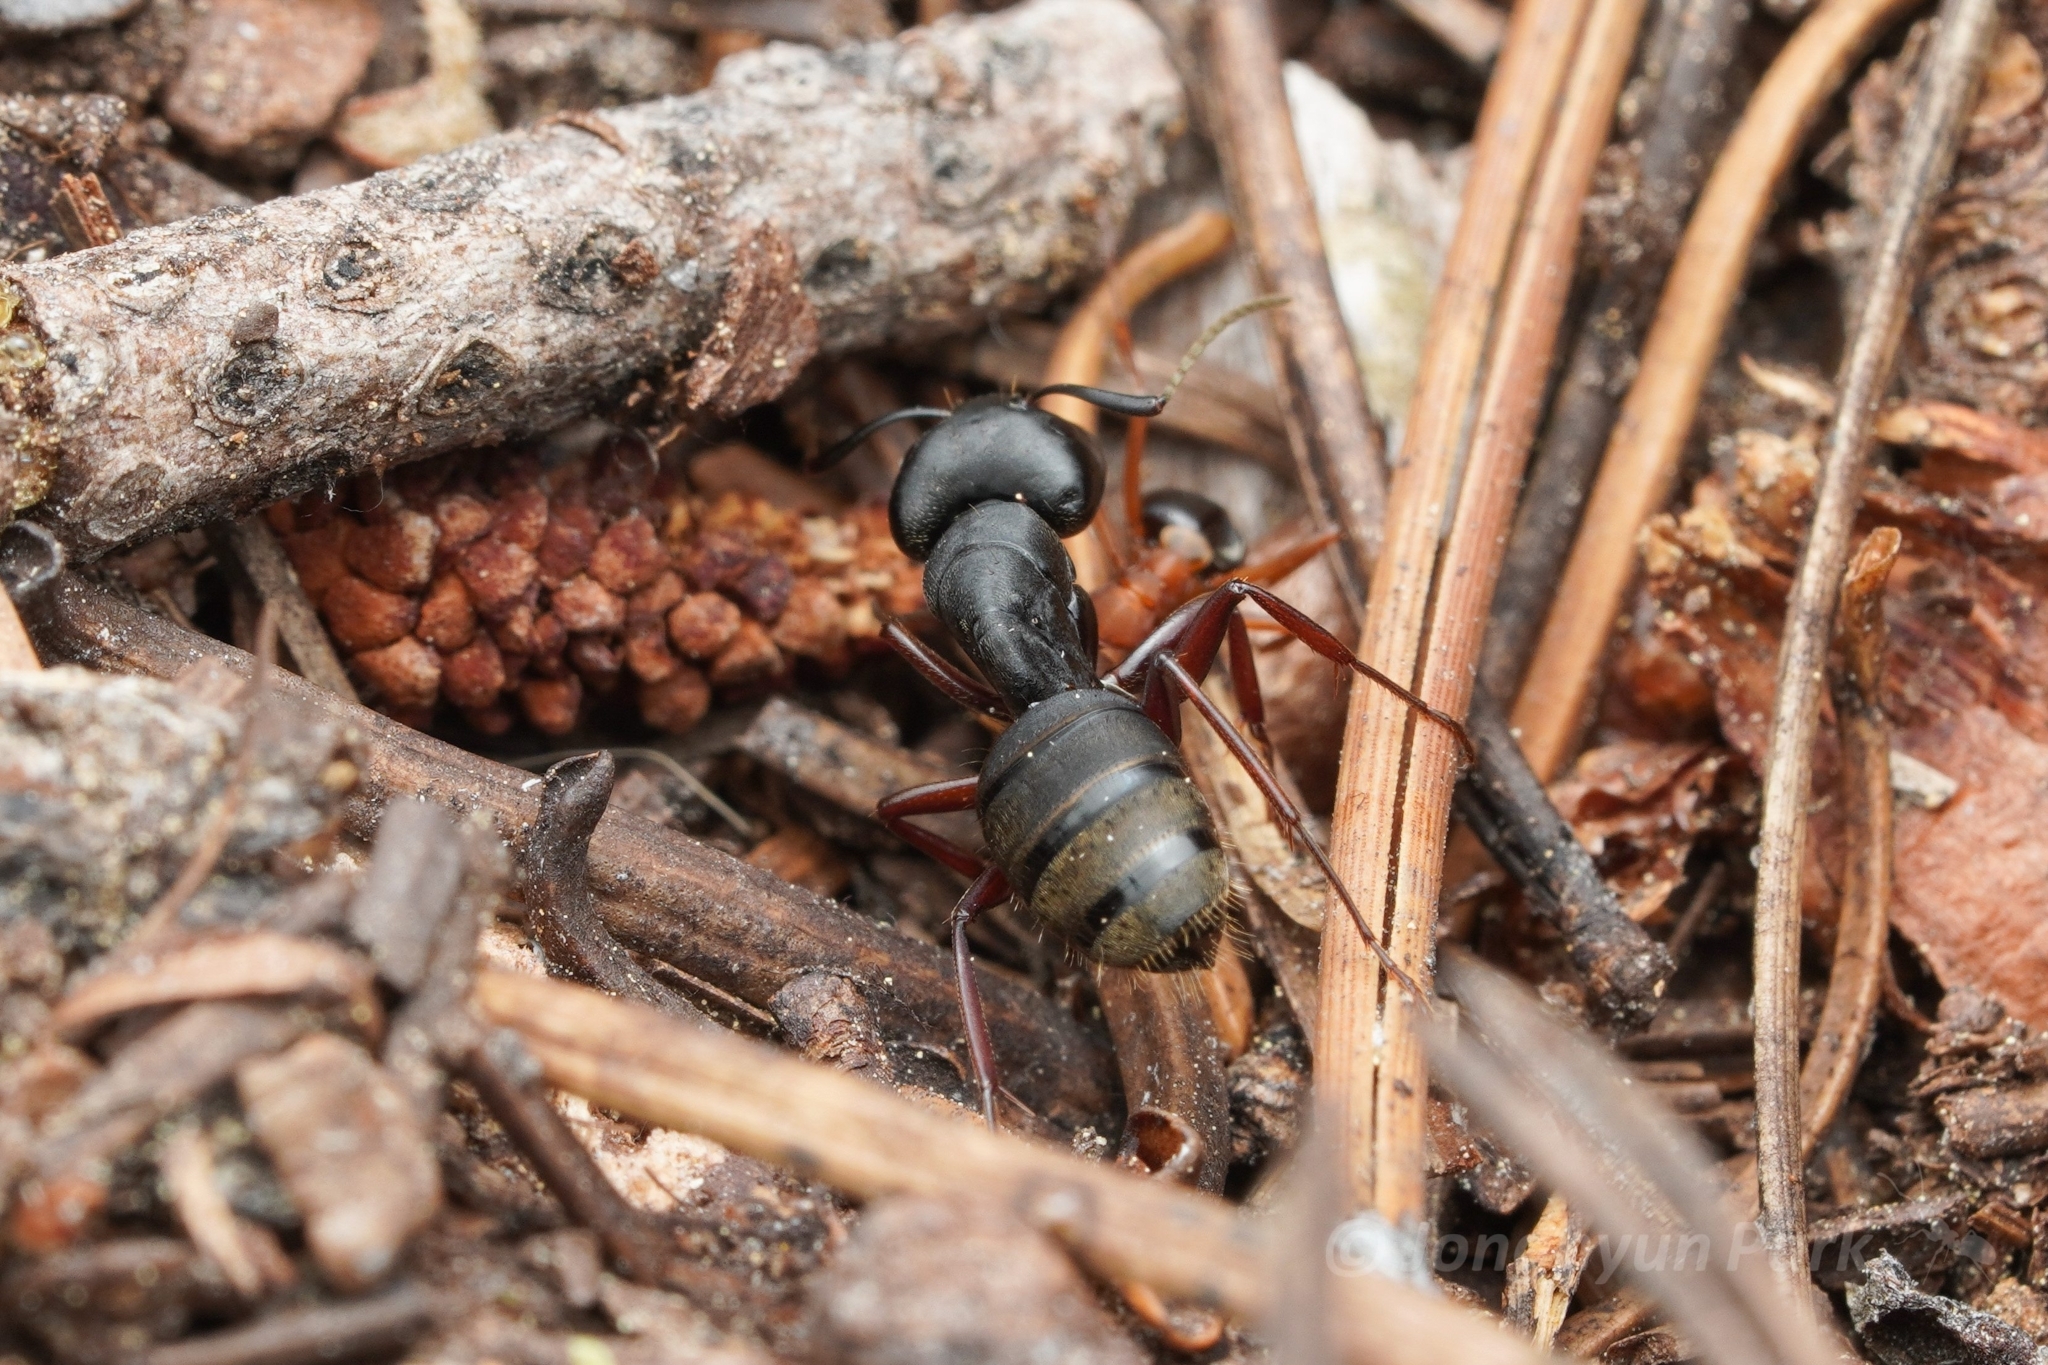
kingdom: Animalia
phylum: Arthropoda
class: Insecta
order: Hymenoptera
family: Formicidae
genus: Camponotus
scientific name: Camponotus modoc
